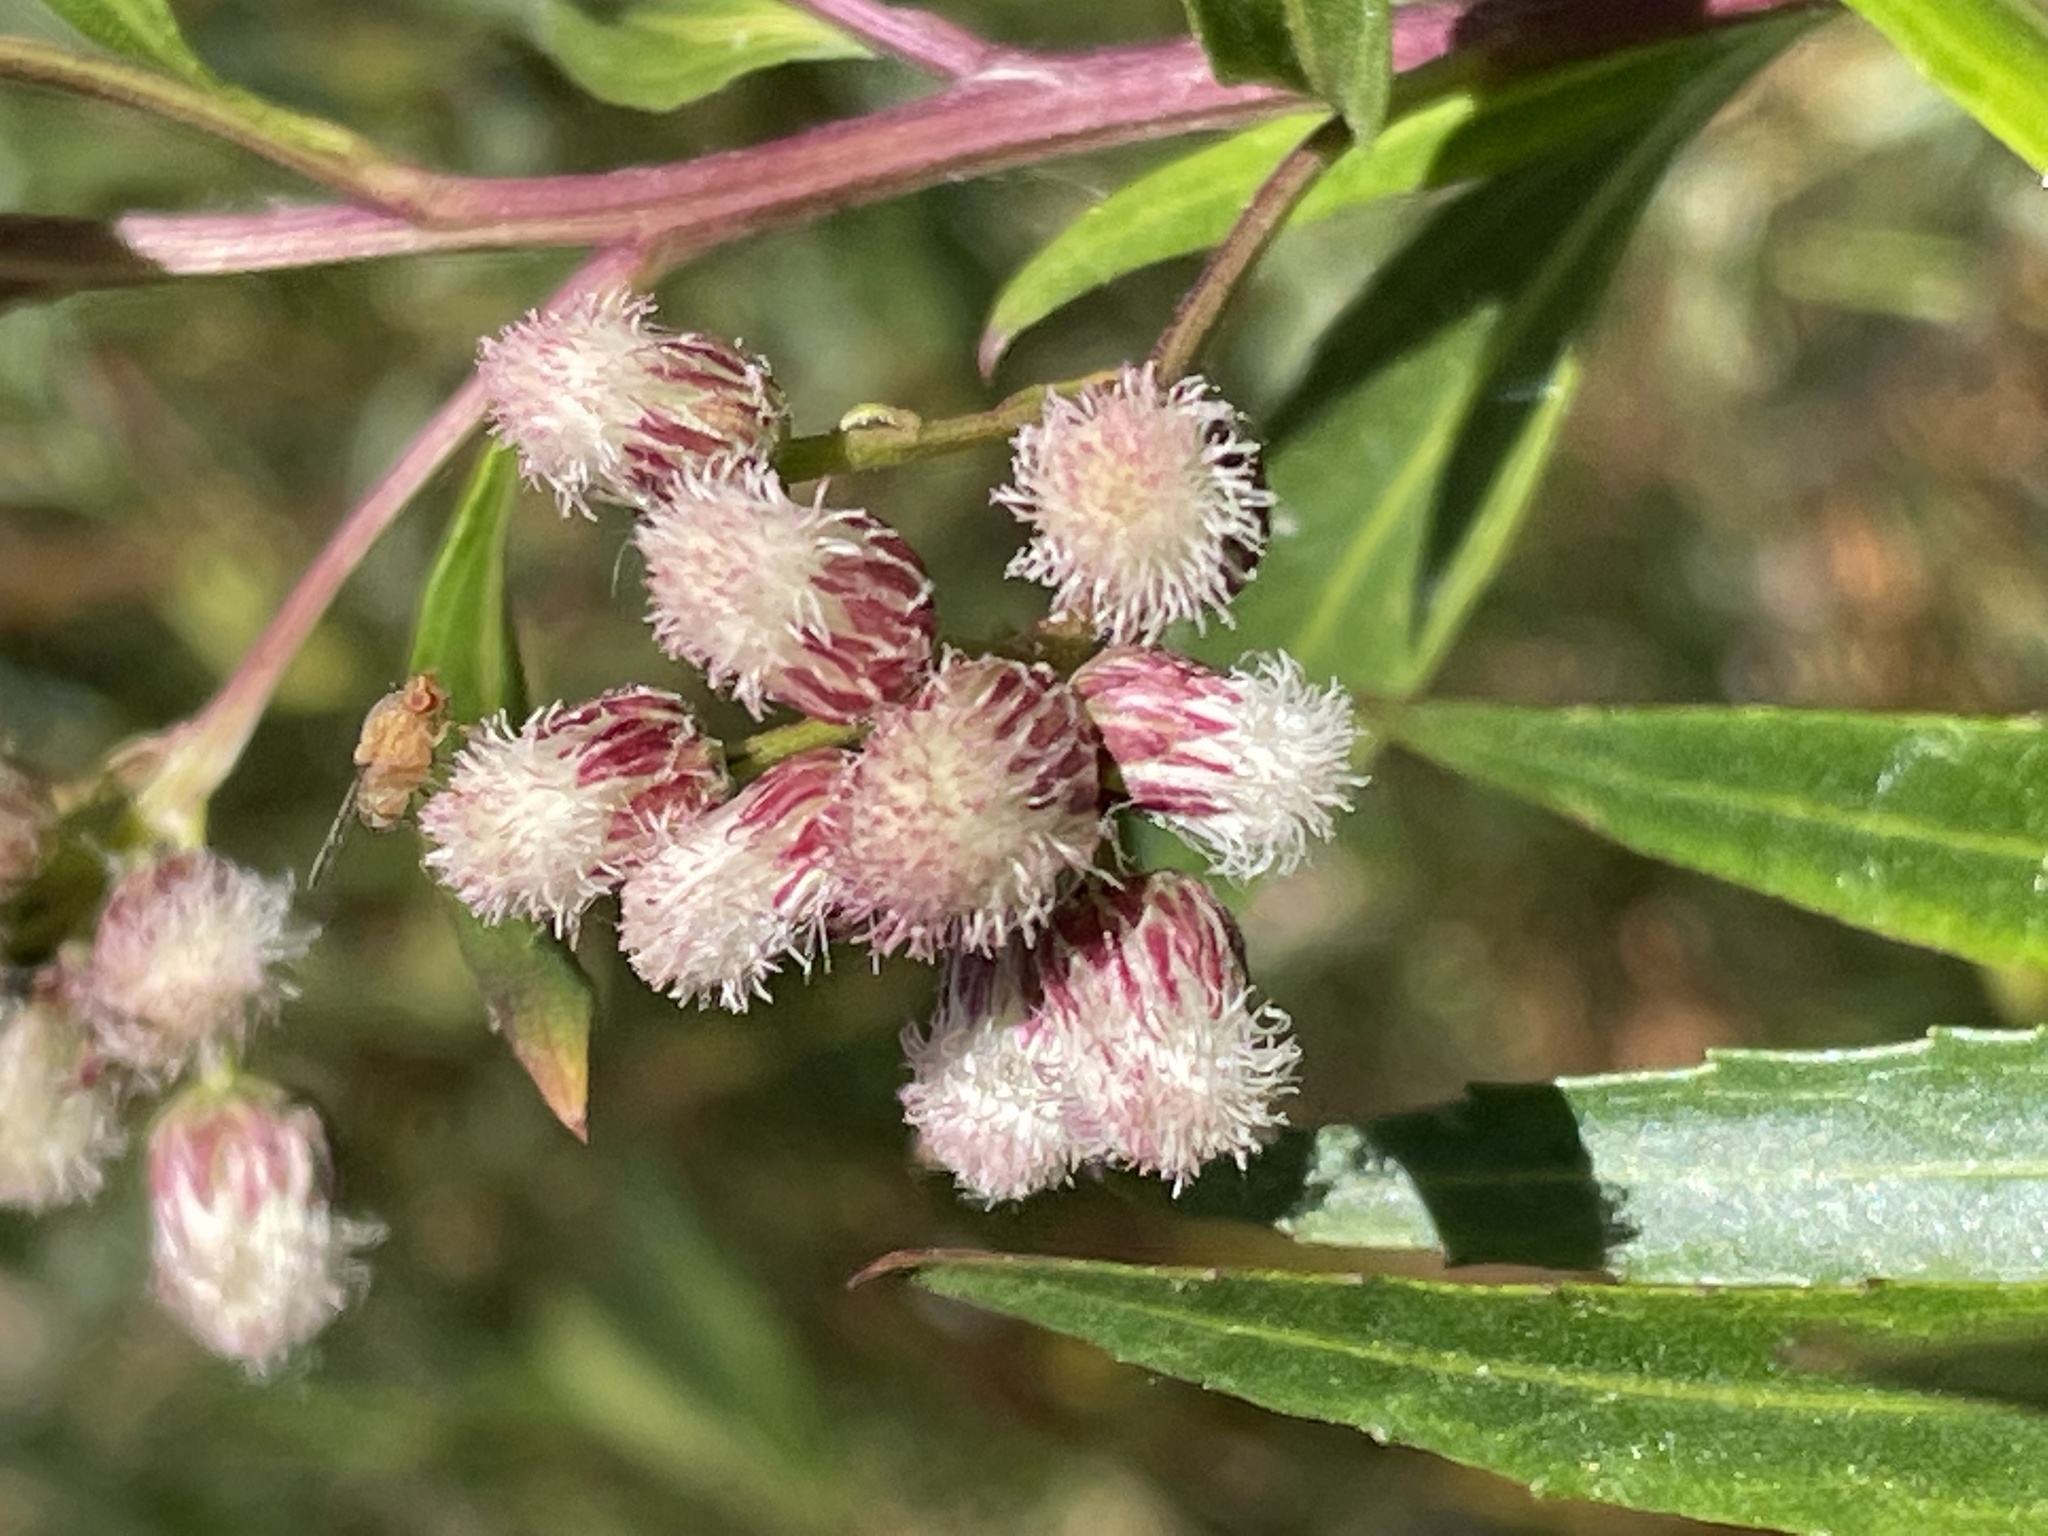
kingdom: Plantae
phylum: Tracheophyta
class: Magnoliopsida
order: Asterales
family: Asteraceae
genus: Baccharis
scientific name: Baccharis salicifolia
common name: Sticky baccharis
